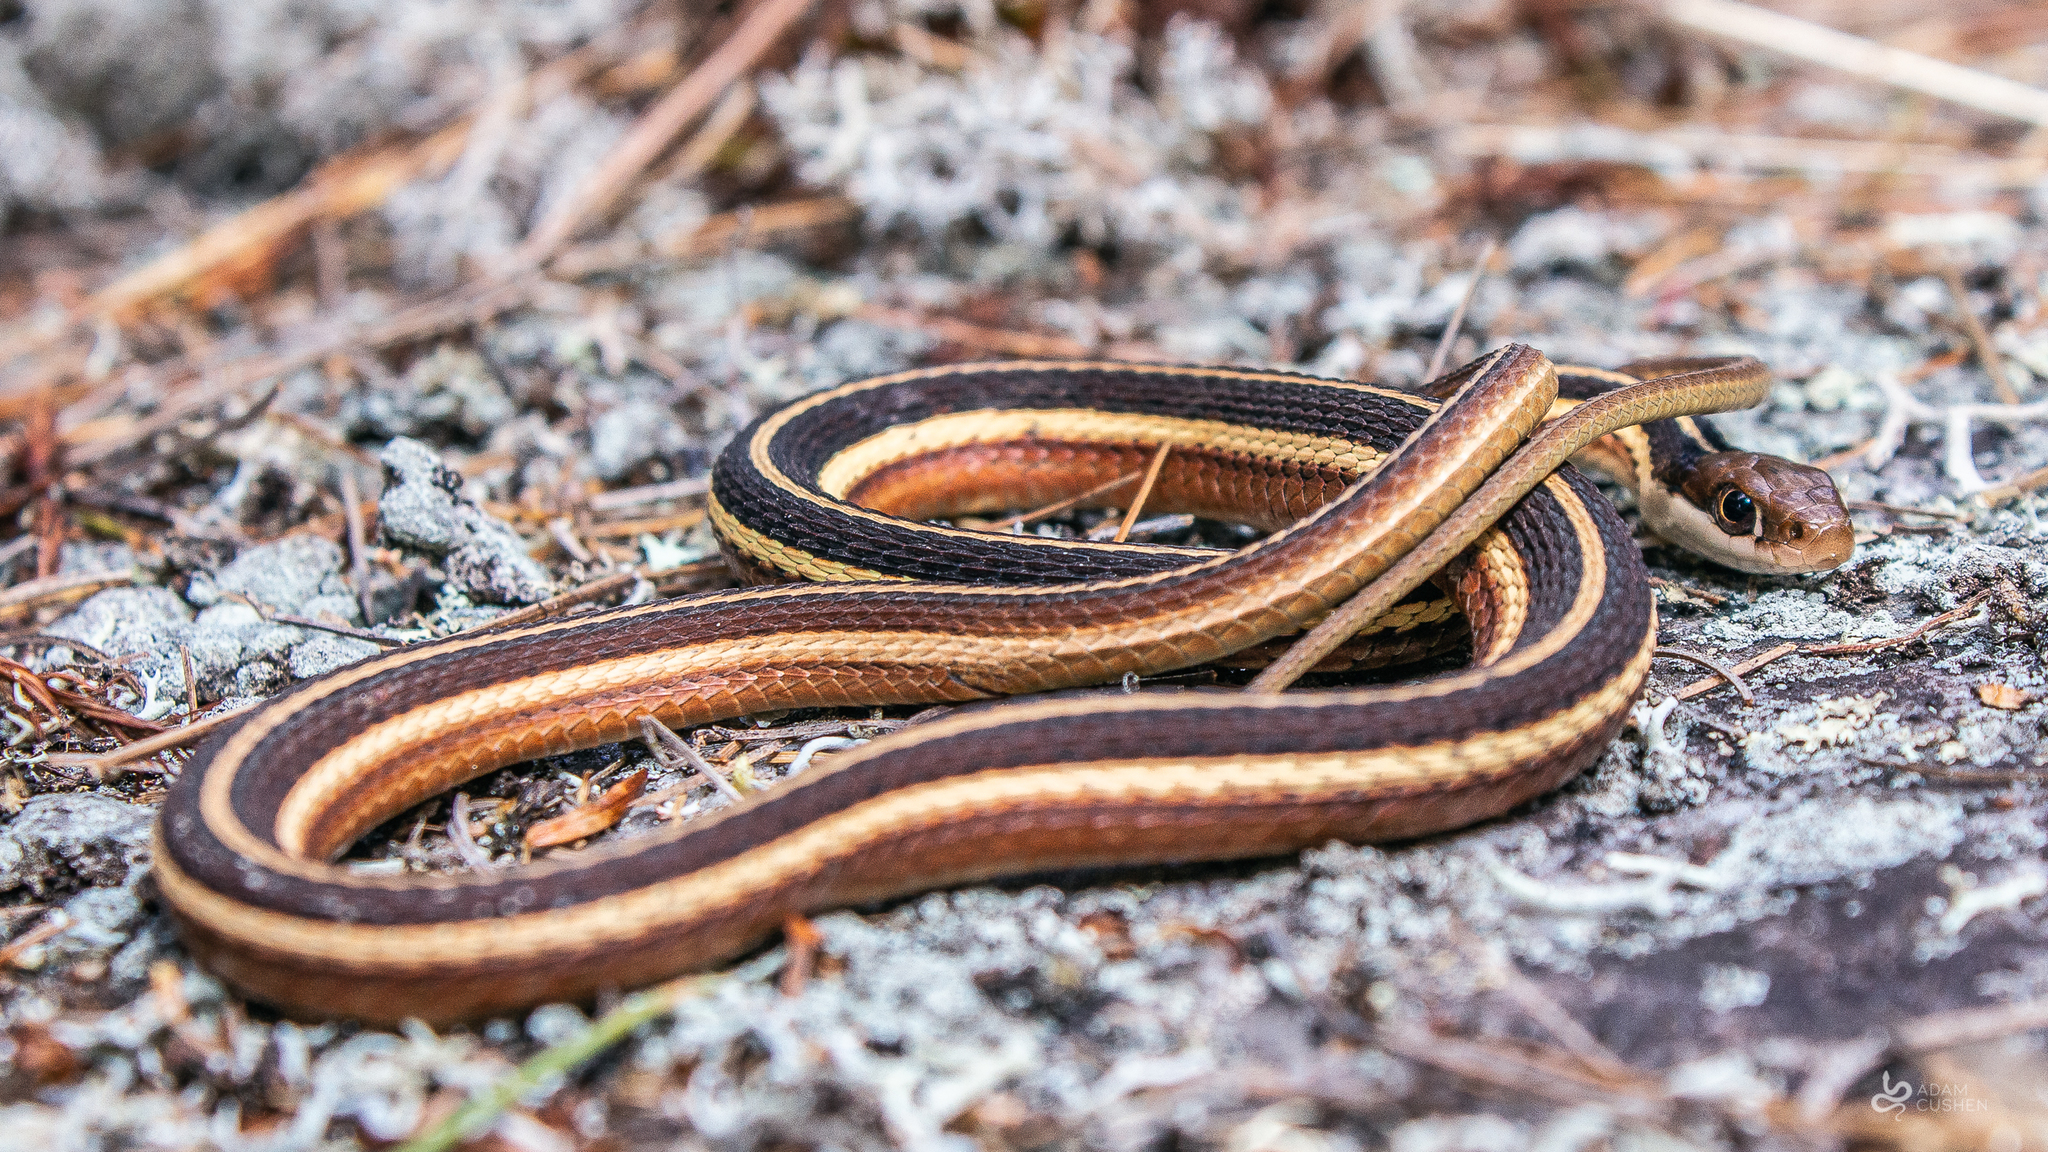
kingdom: Animalia
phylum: Chordata
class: Squamata
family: Colubridae
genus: Thamnophis
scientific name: Thamnophis saurita
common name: Eastern ribbonsnake
